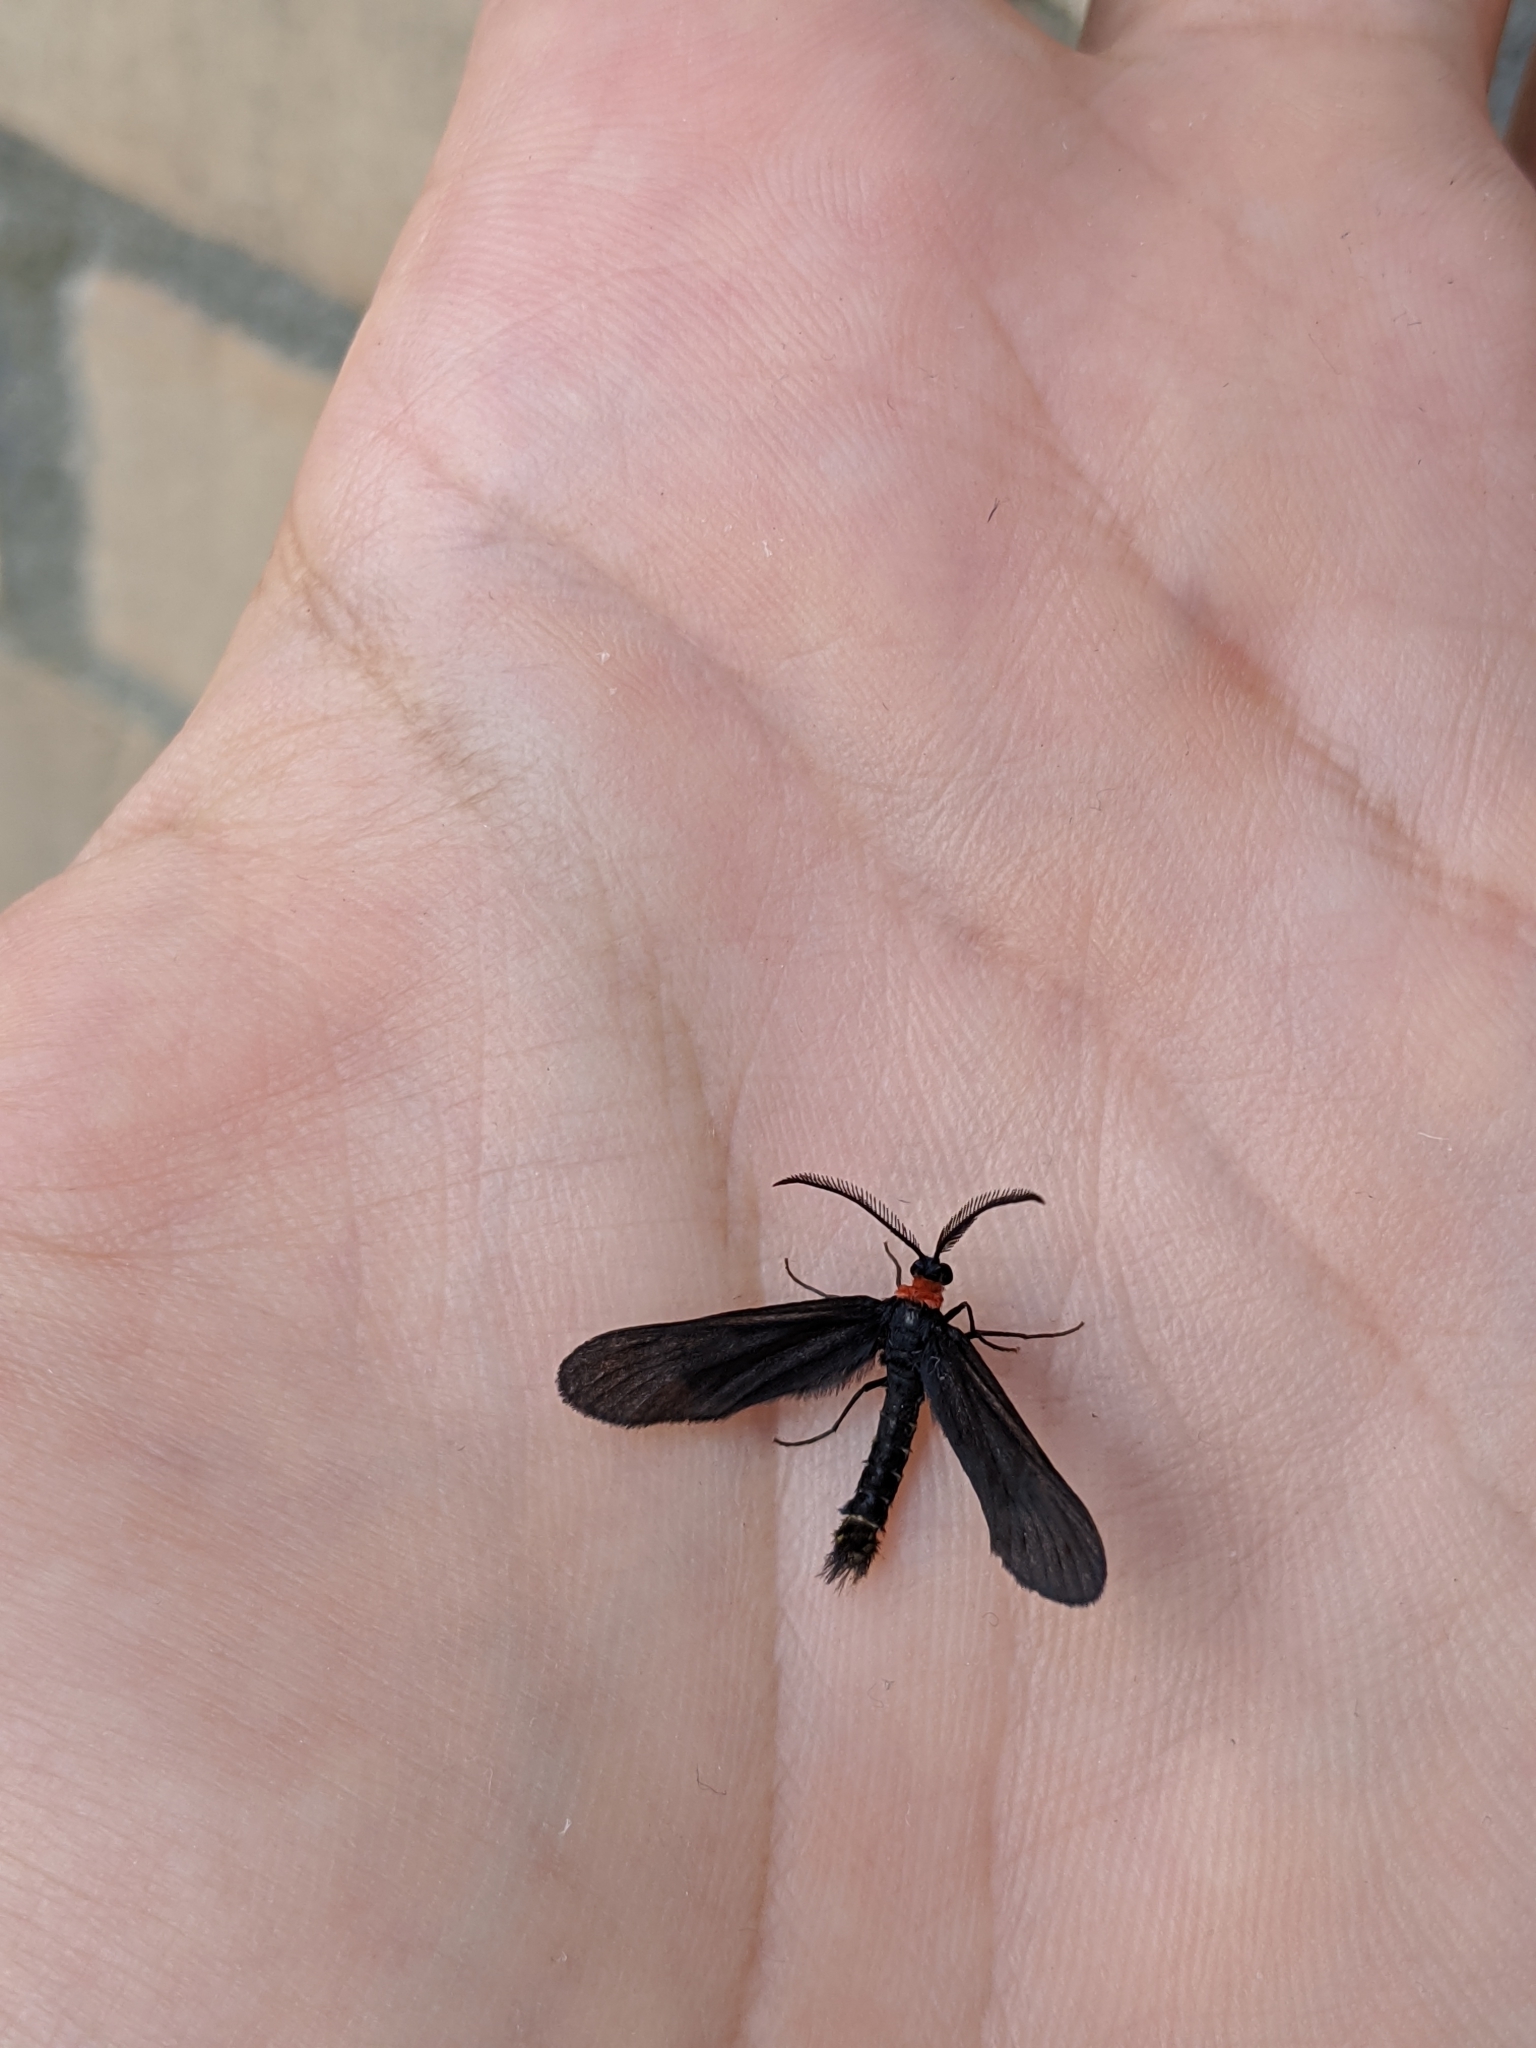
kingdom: Animalia
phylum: Arthropoda
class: Insecta
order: Lepidoptera
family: Zygaenidae
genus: Harrisina
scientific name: Harrisina americana
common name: Grapeleaf skeletonizer moth
